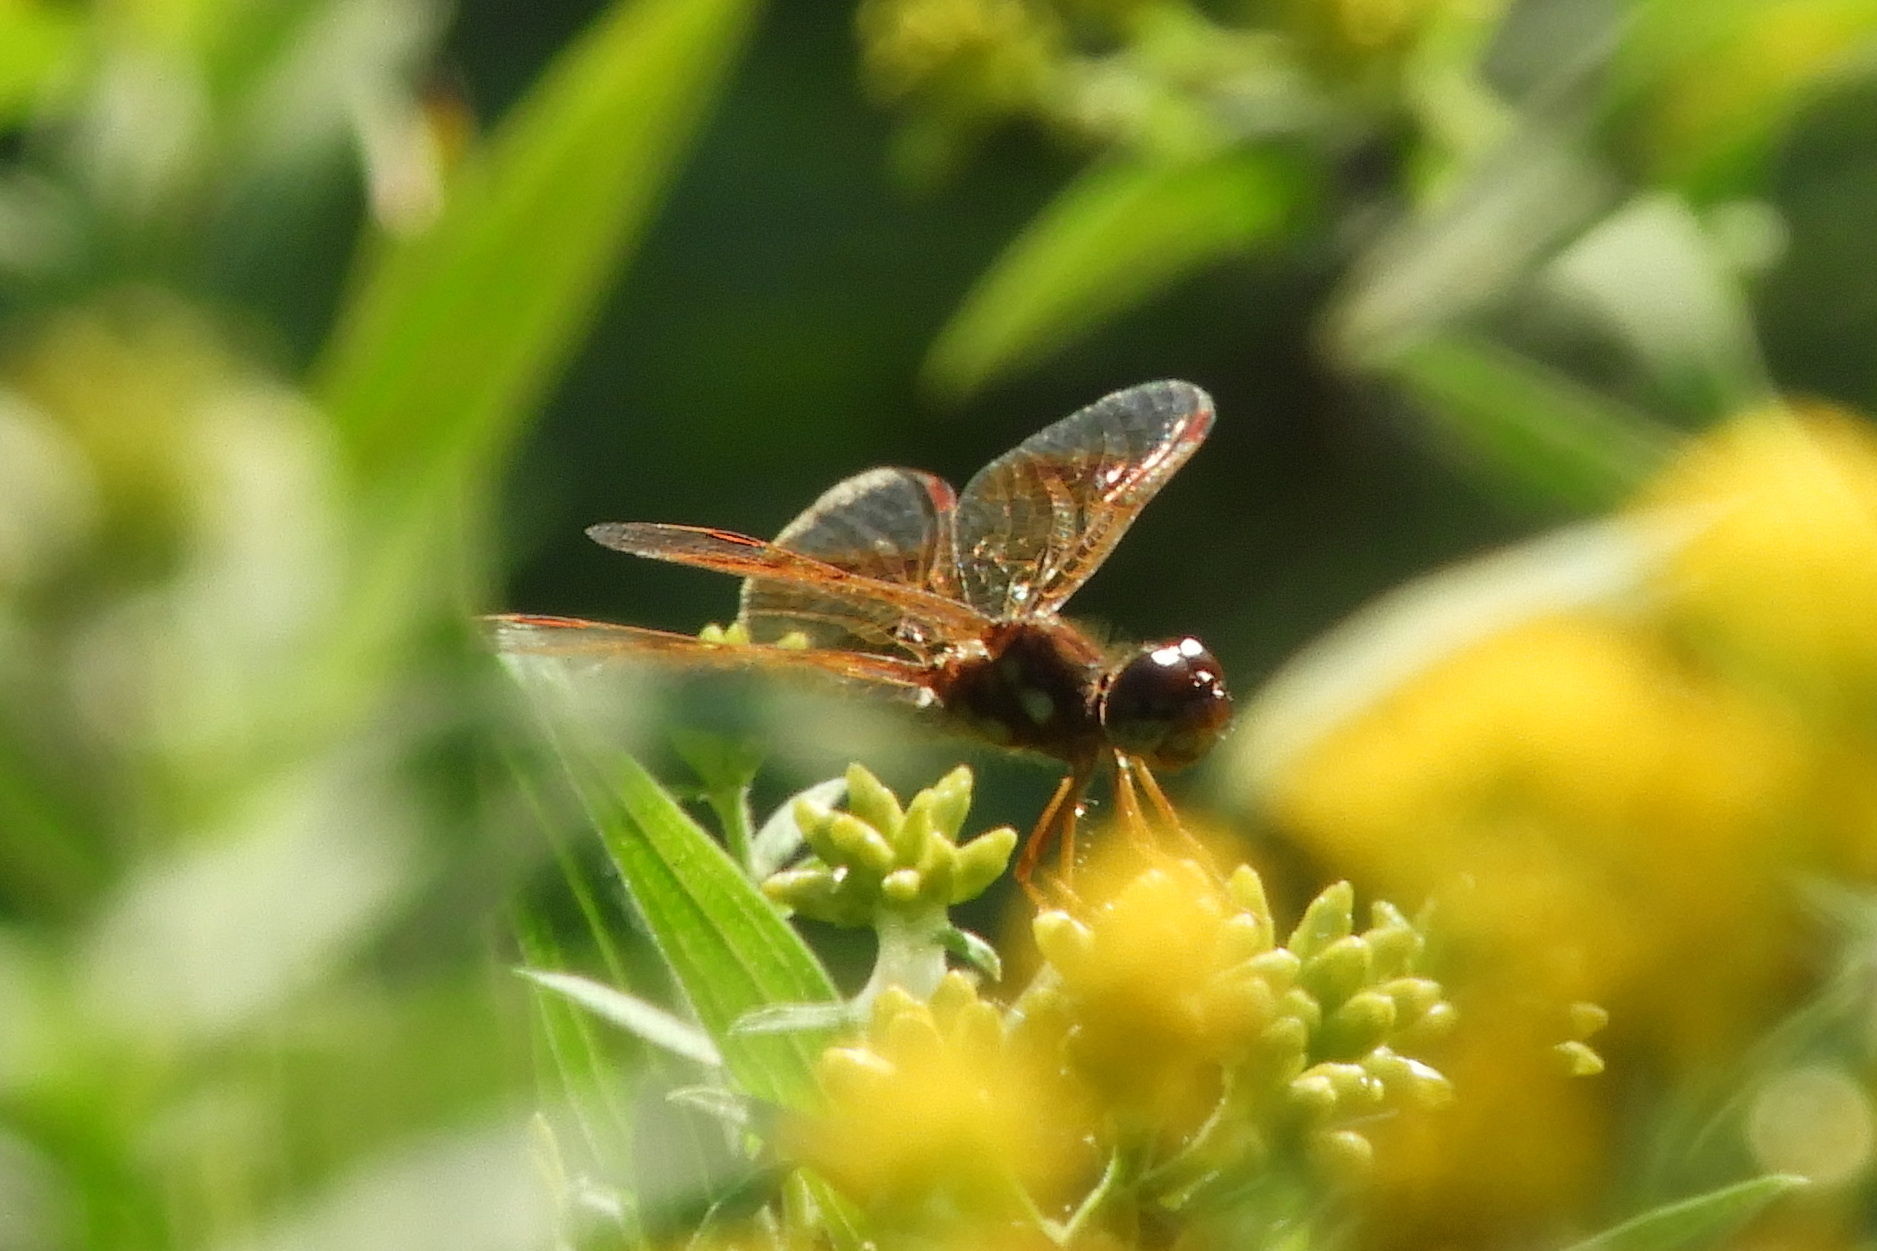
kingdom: Animalia
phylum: Arthropoda
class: Insecta
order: Odonata
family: Libellulidae
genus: Perithemis
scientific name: Perithemis tenera
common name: Eastern amberwing
